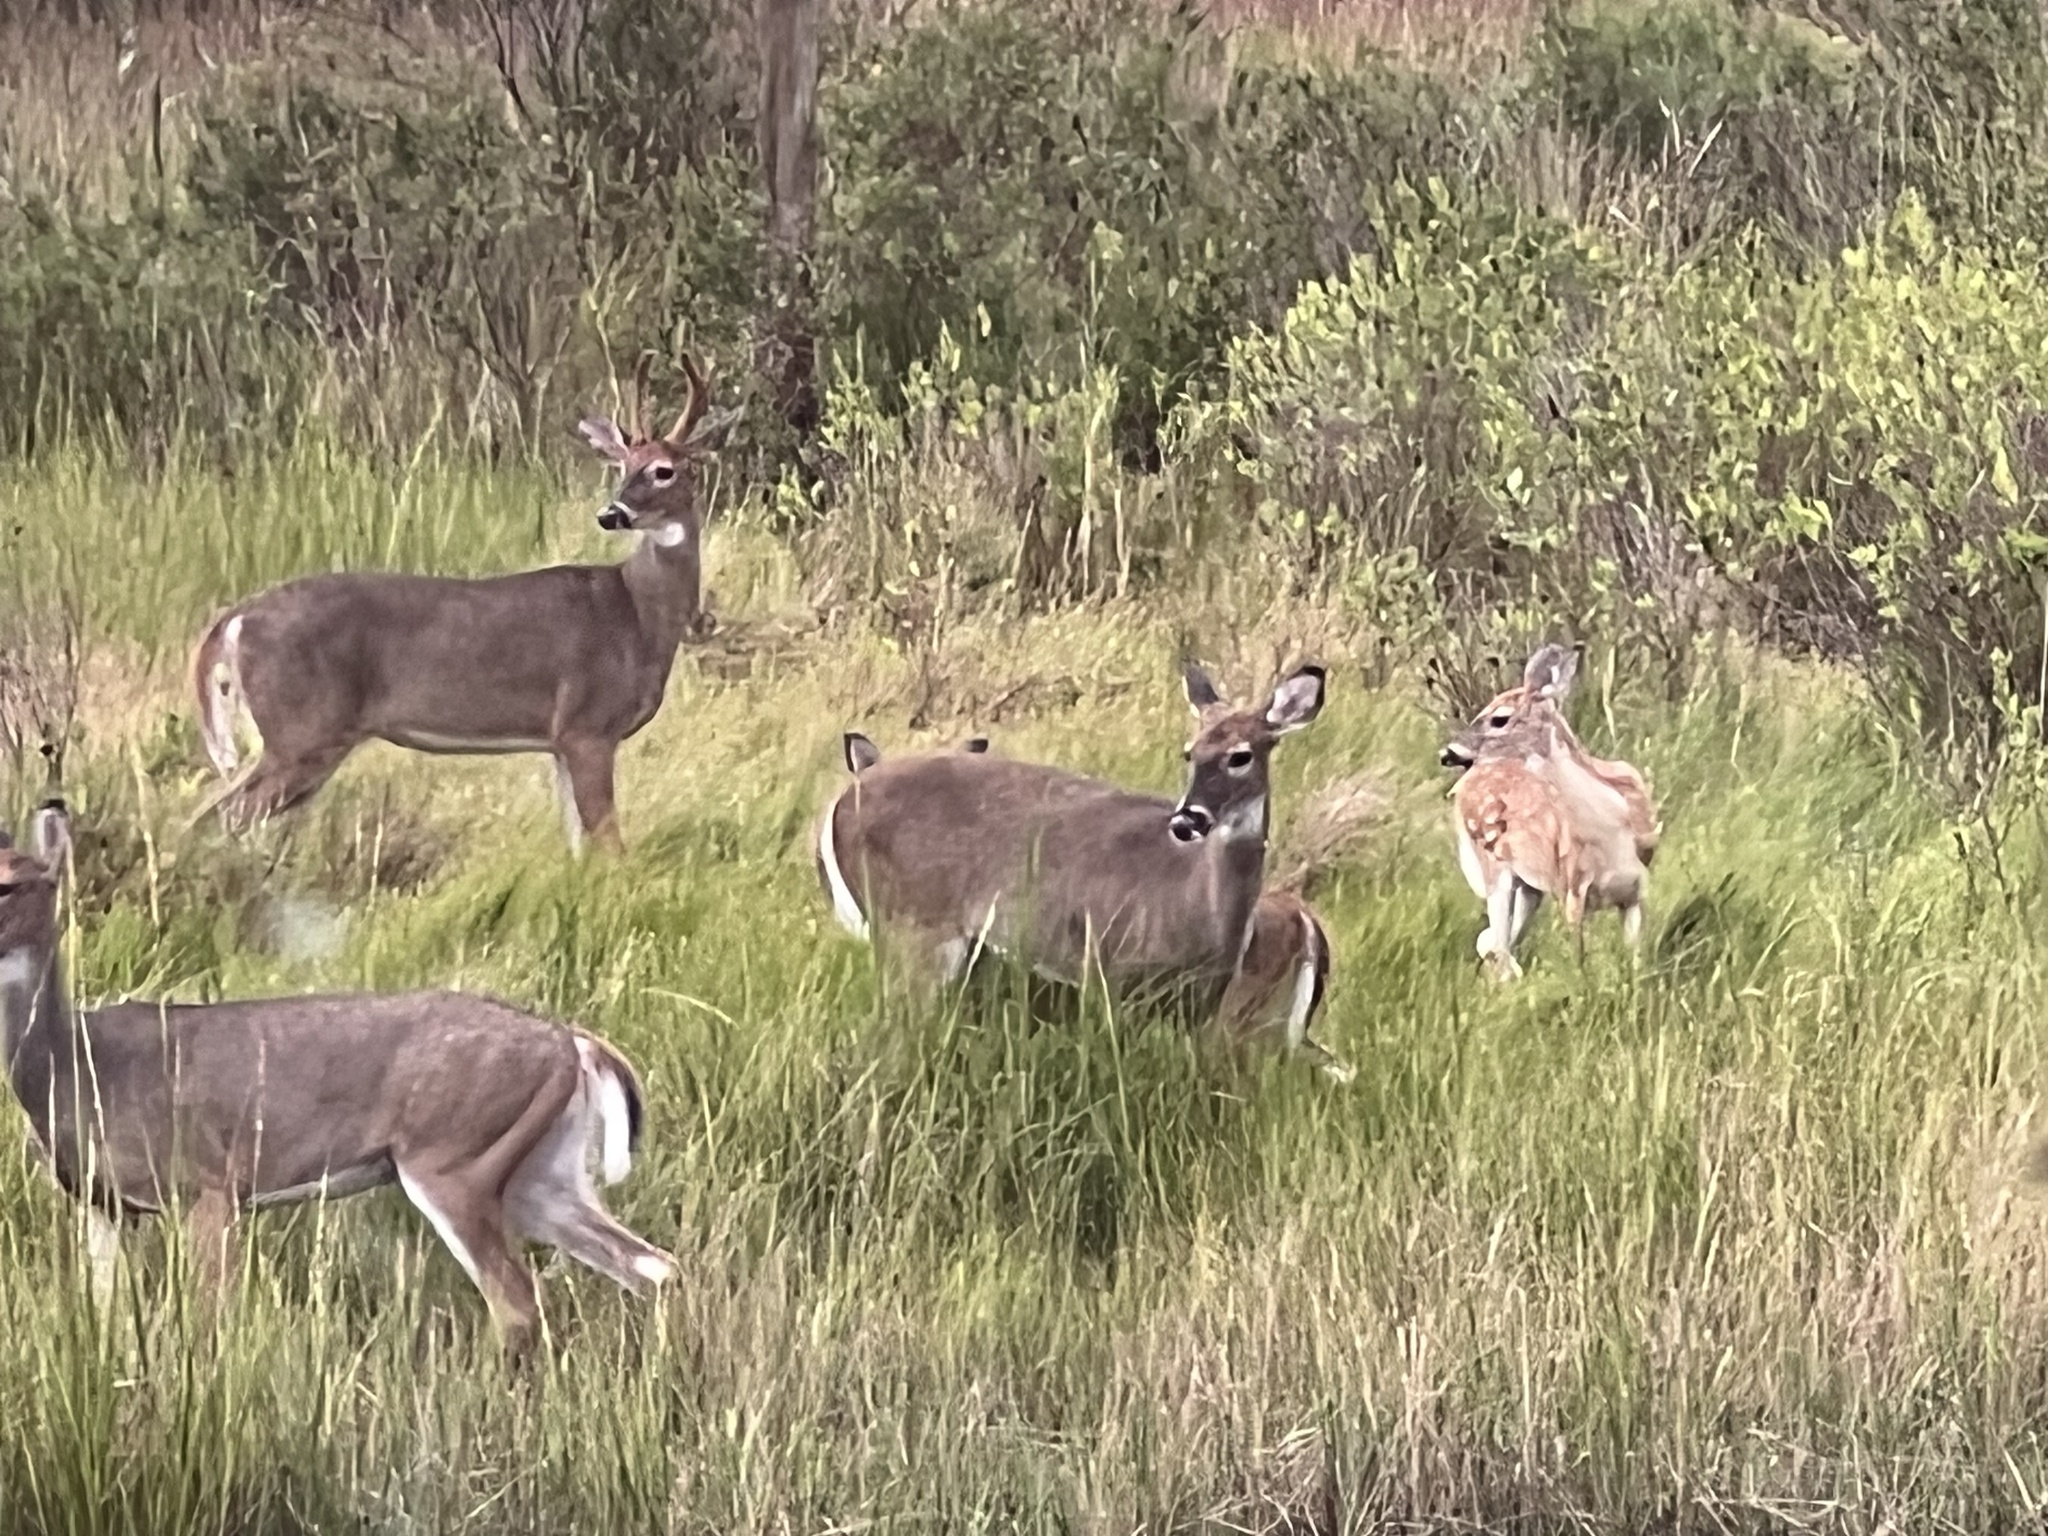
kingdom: Animalia
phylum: Chordata
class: Mammalia
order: Artiodactyla
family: Cervidae
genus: Odocoileus
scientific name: Odocoileus virginianus
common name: White-tailed deer
